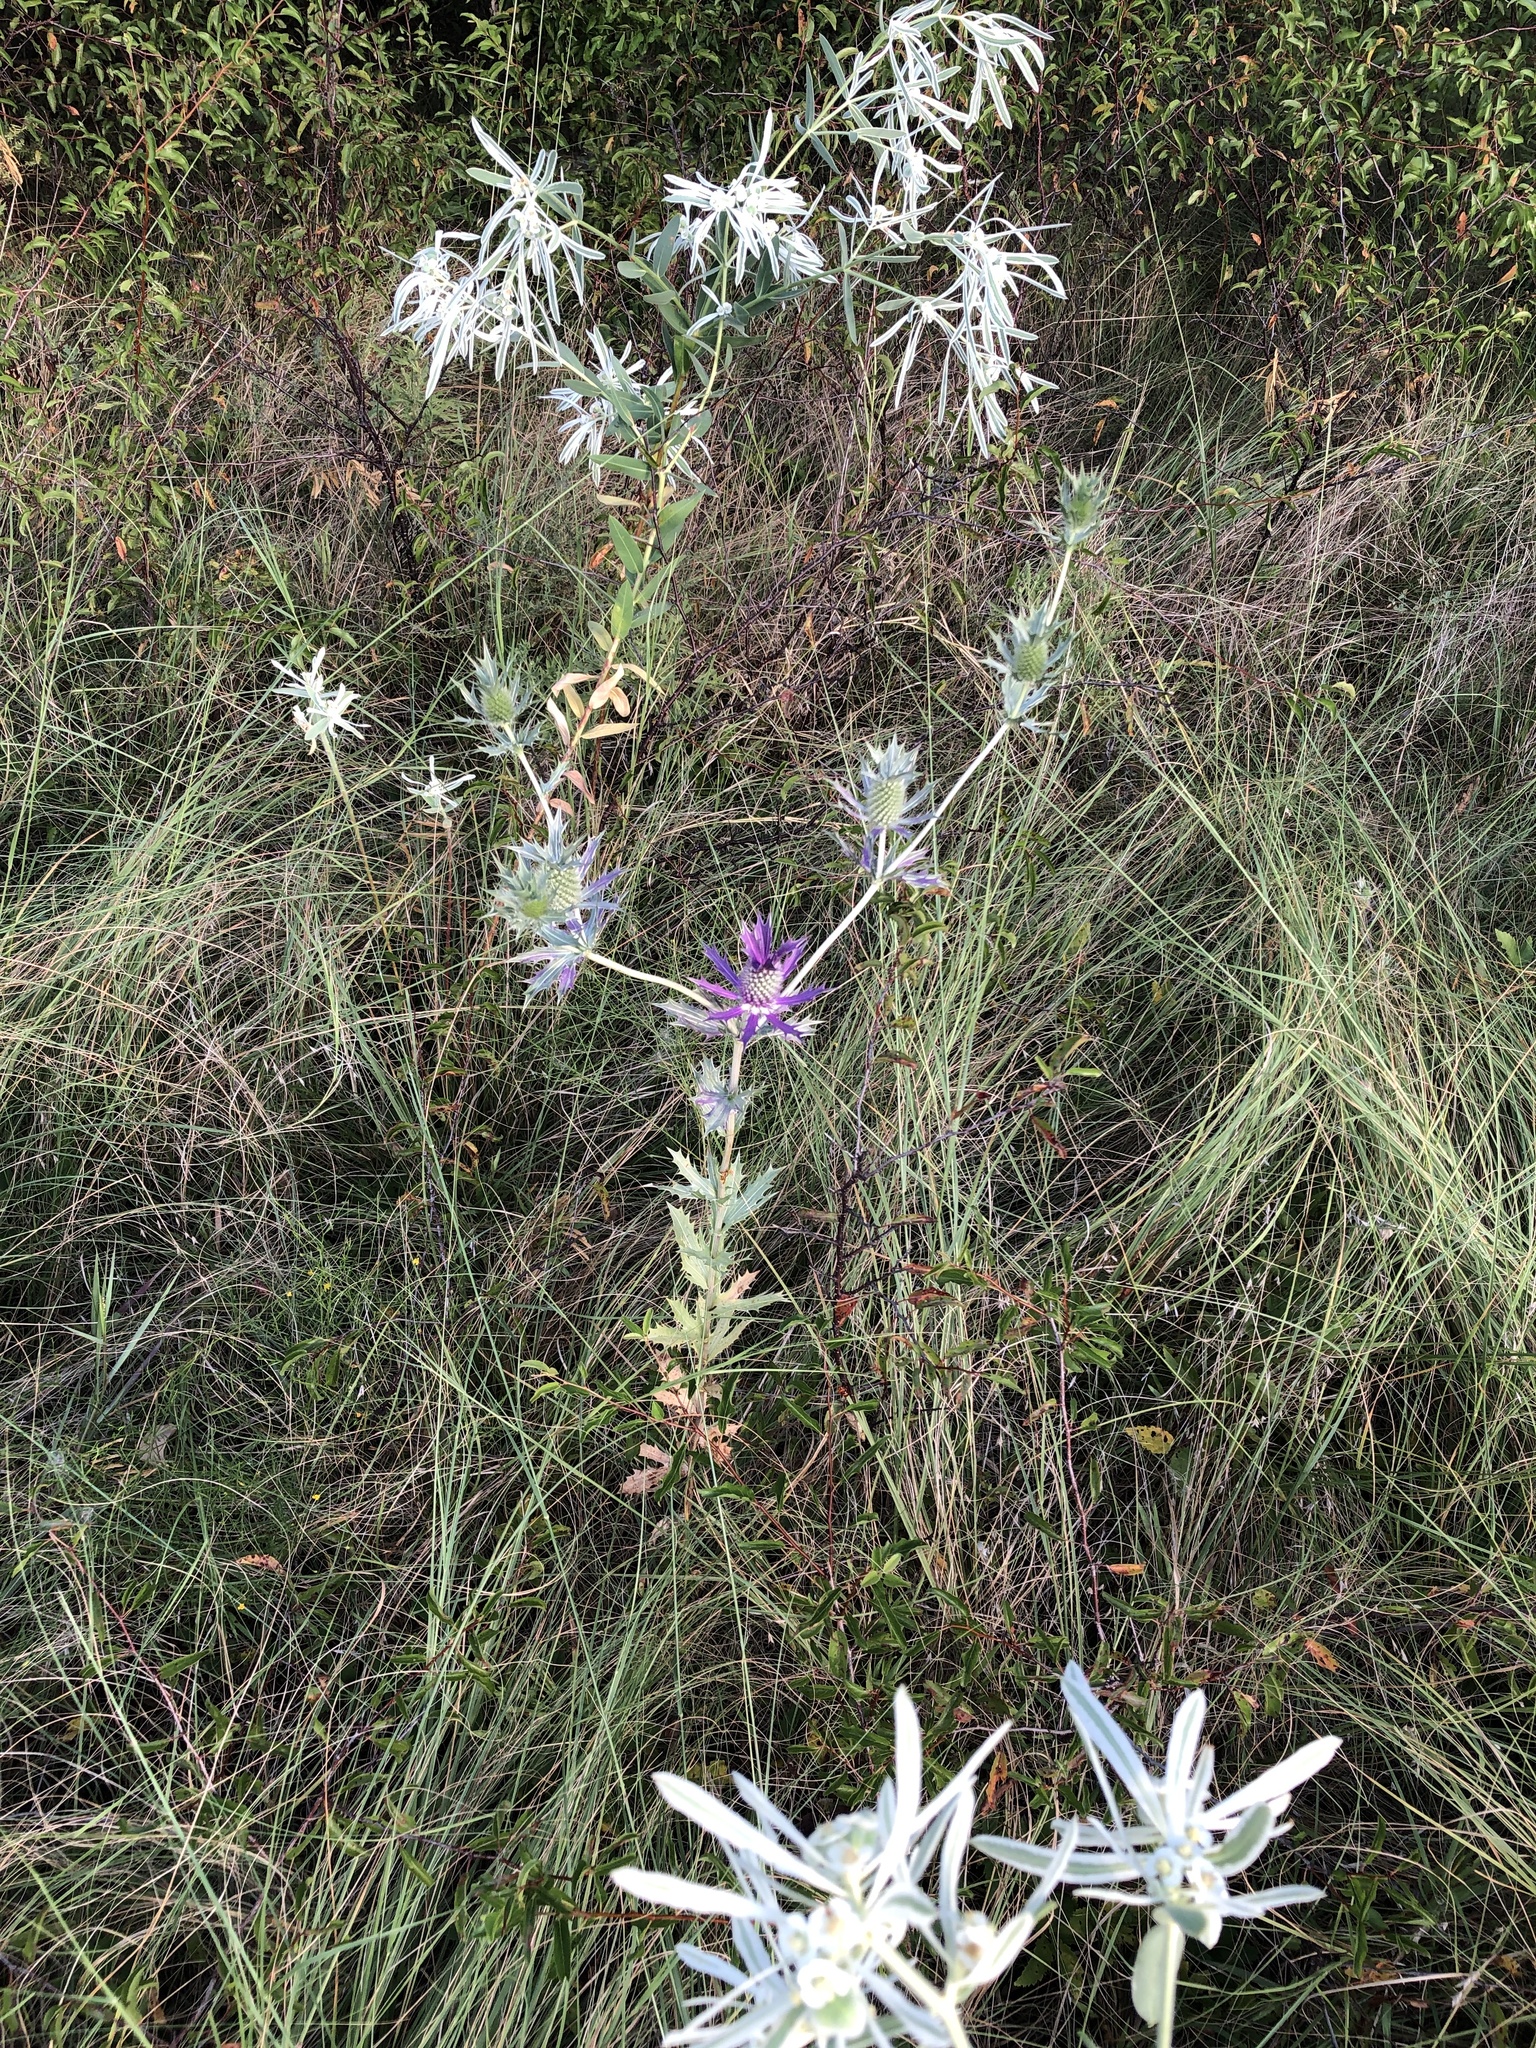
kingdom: Plantae
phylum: Tracheophyta
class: Magnoliopsida
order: Apiales
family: Apiaceae
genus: Eryngium
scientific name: Eryngium leavenworthii
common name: Leavenworth's eryngo
